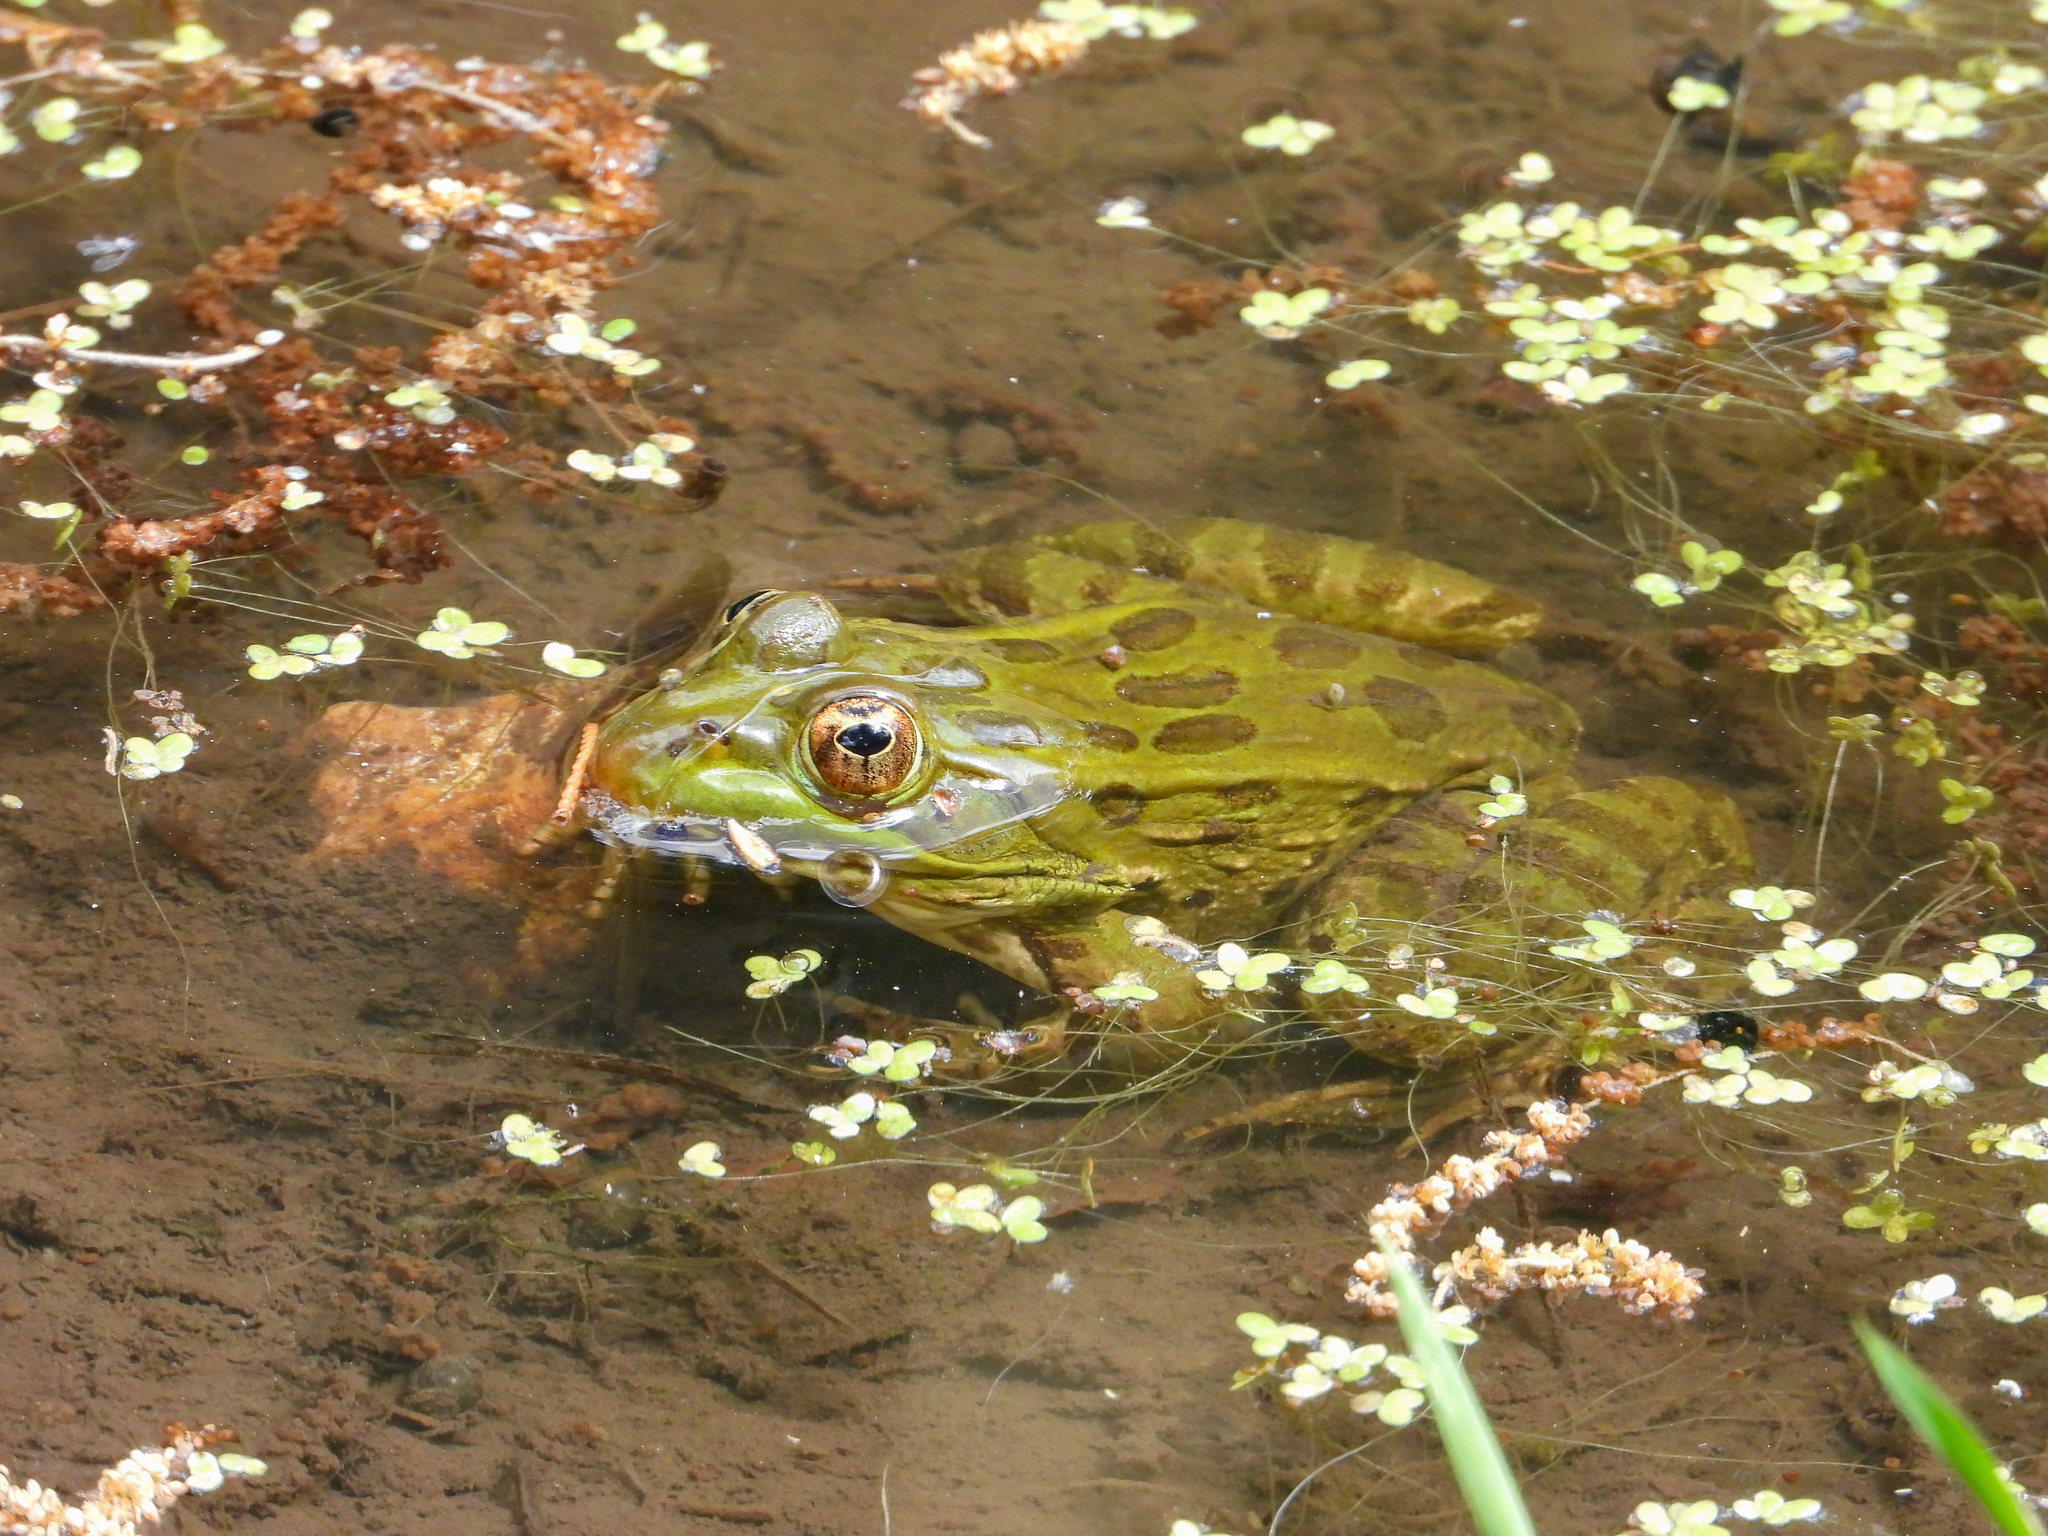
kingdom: Animalia
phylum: Chordata
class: Amphibia
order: Anura
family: Ranidae
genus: Lithobates
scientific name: Lithobates chiricahuensis
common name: Chiricahua leopard frog
